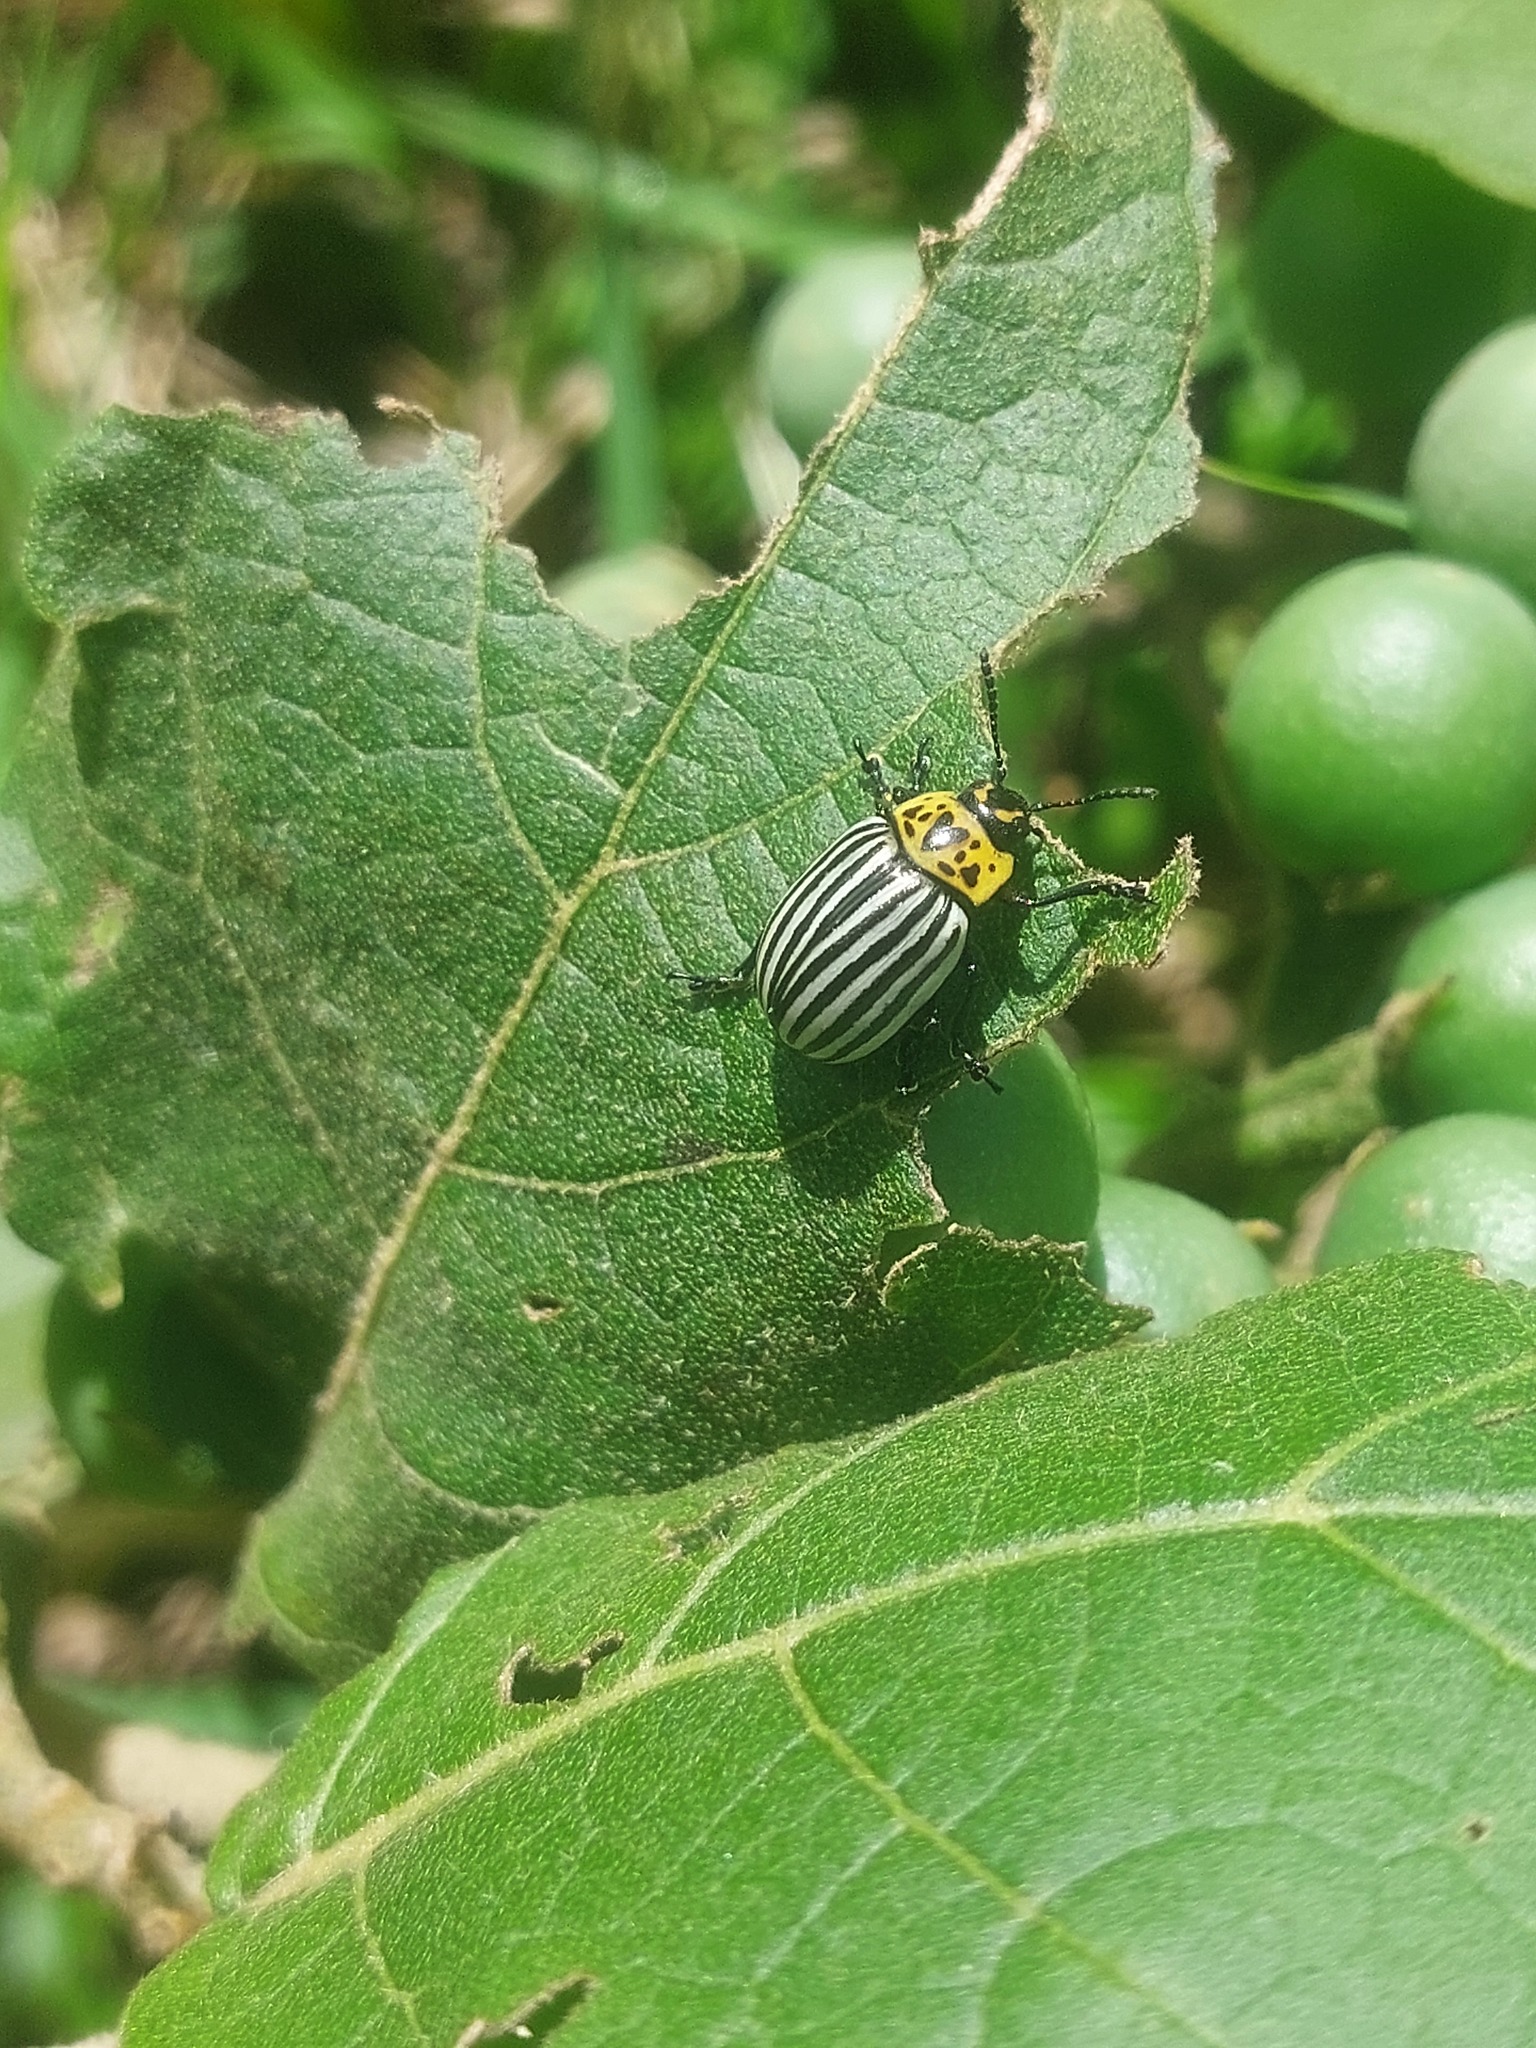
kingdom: Animalia
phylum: Arthropoda
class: Insecta
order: Coleoptera
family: Chrysomelidae
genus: Leptinotarsa
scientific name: Leptinotarsa
